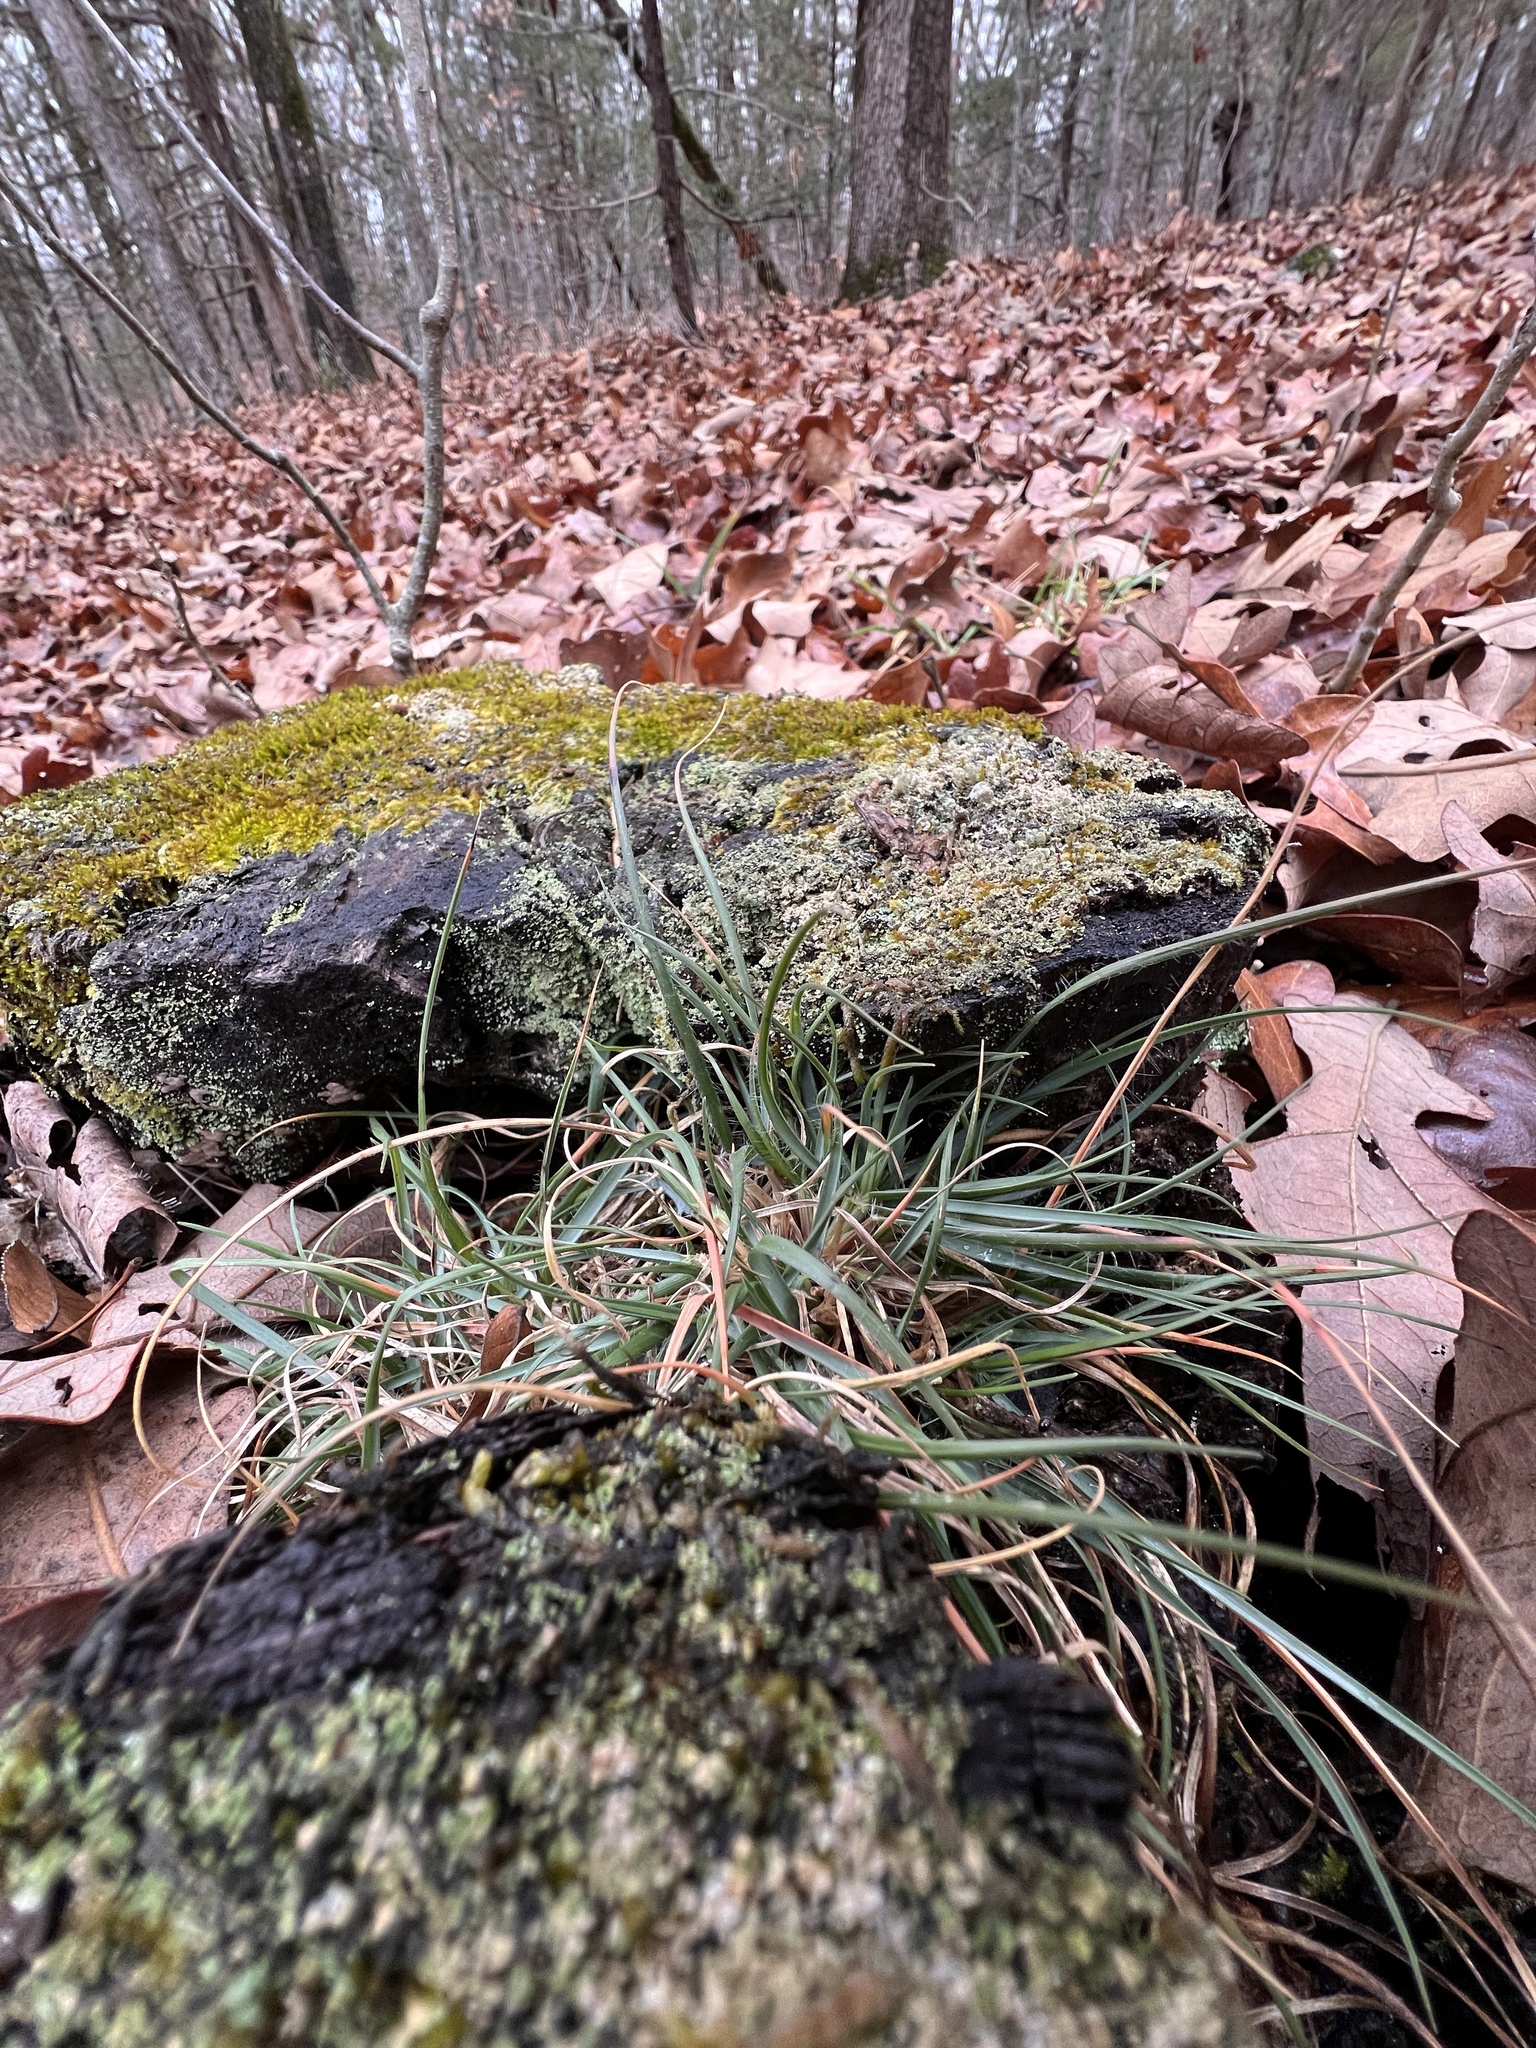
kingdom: Plantae
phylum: Tracheophyta
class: Liliopsida
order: Poales
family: Poaceae
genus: Danthonia
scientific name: Danthonia spicata
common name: Common wild oatgrass
